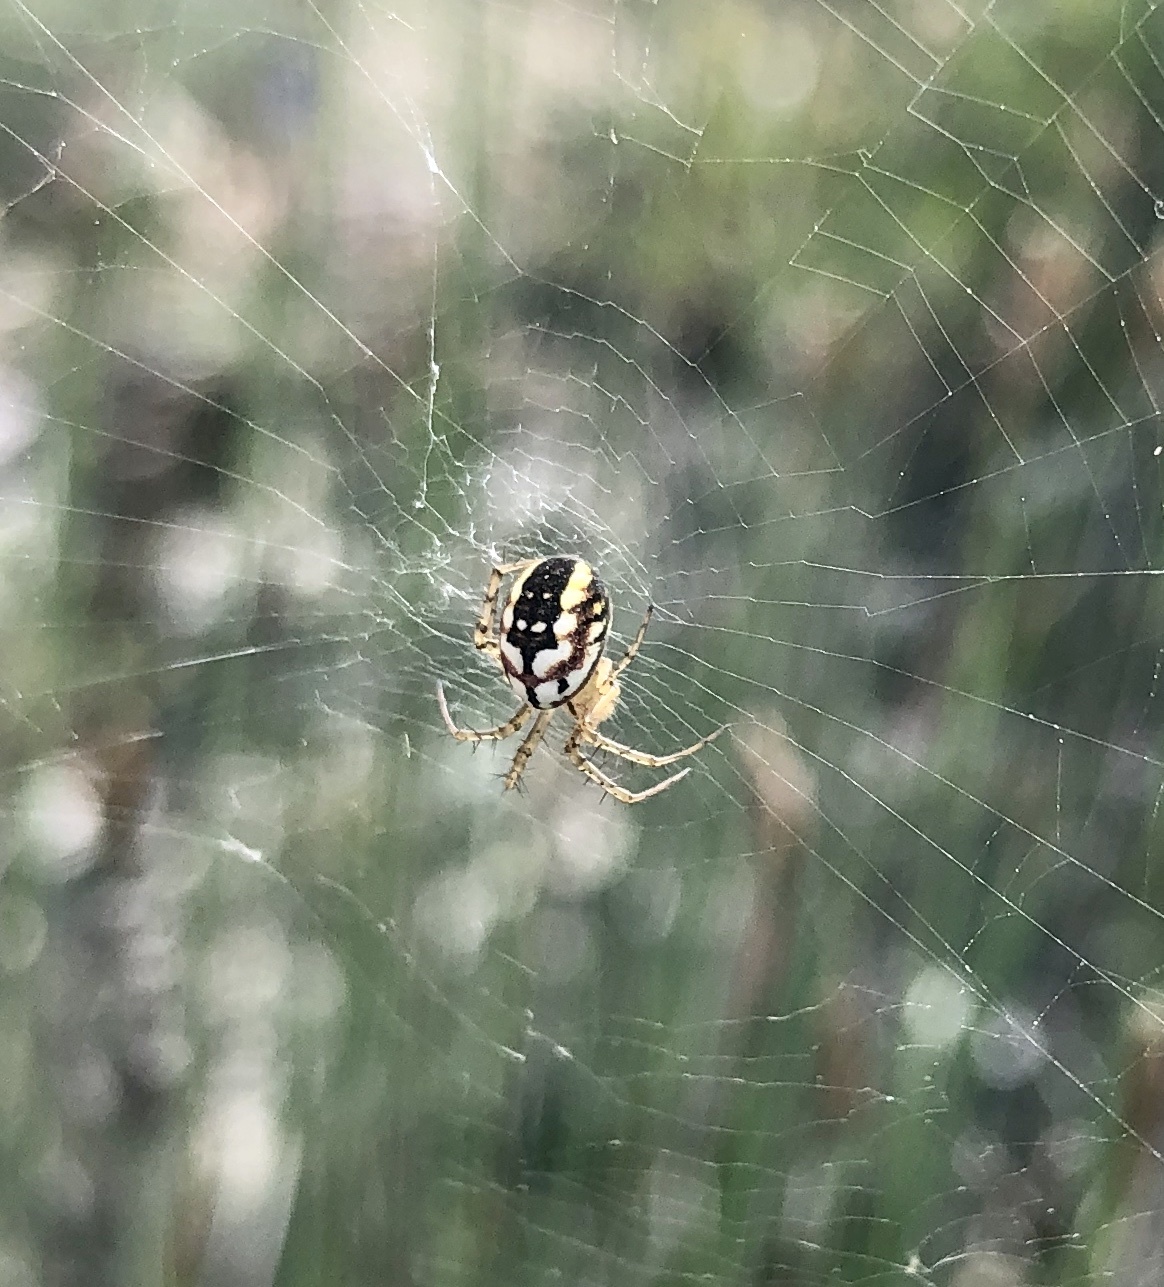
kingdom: Animalia
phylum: Arthropoda
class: Arachnida
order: Araneae
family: Araneidae
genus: Mangora
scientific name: Mangora acalypha
